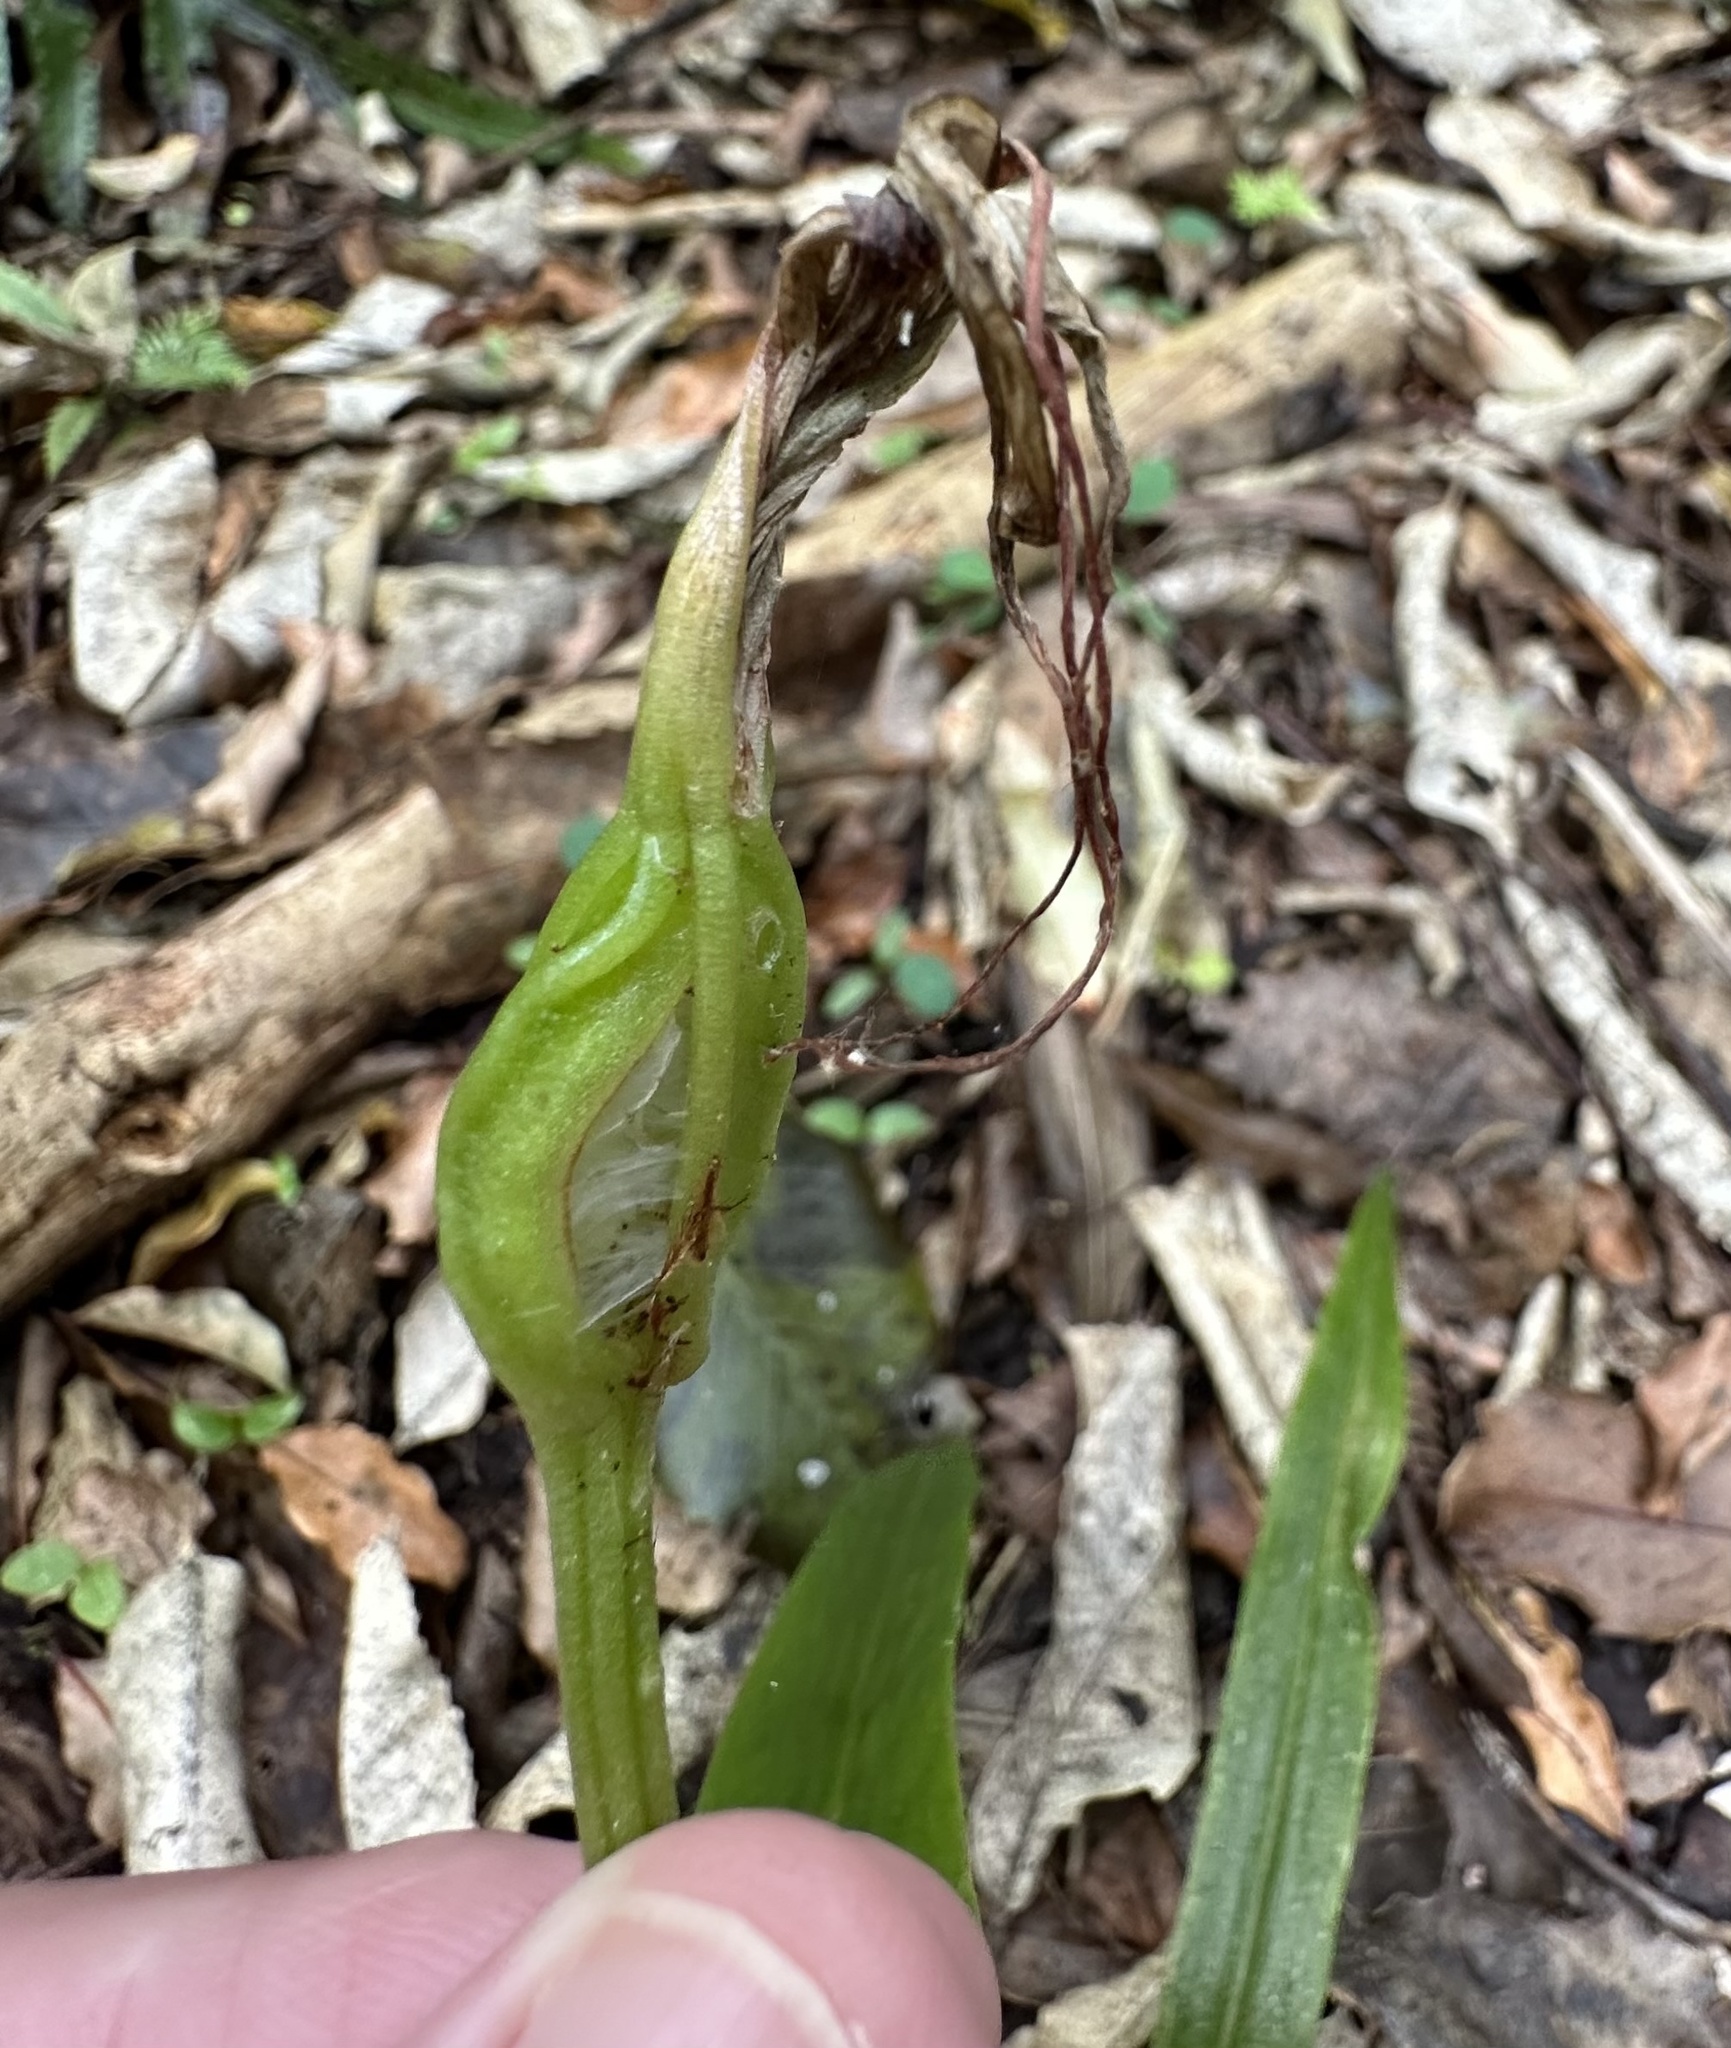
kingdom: Plantae
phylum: Tracheophyta
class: Liliopsida
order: Asparagales
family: Orchidaceae
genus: Pterostylis
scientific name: Pterostylis banksii
